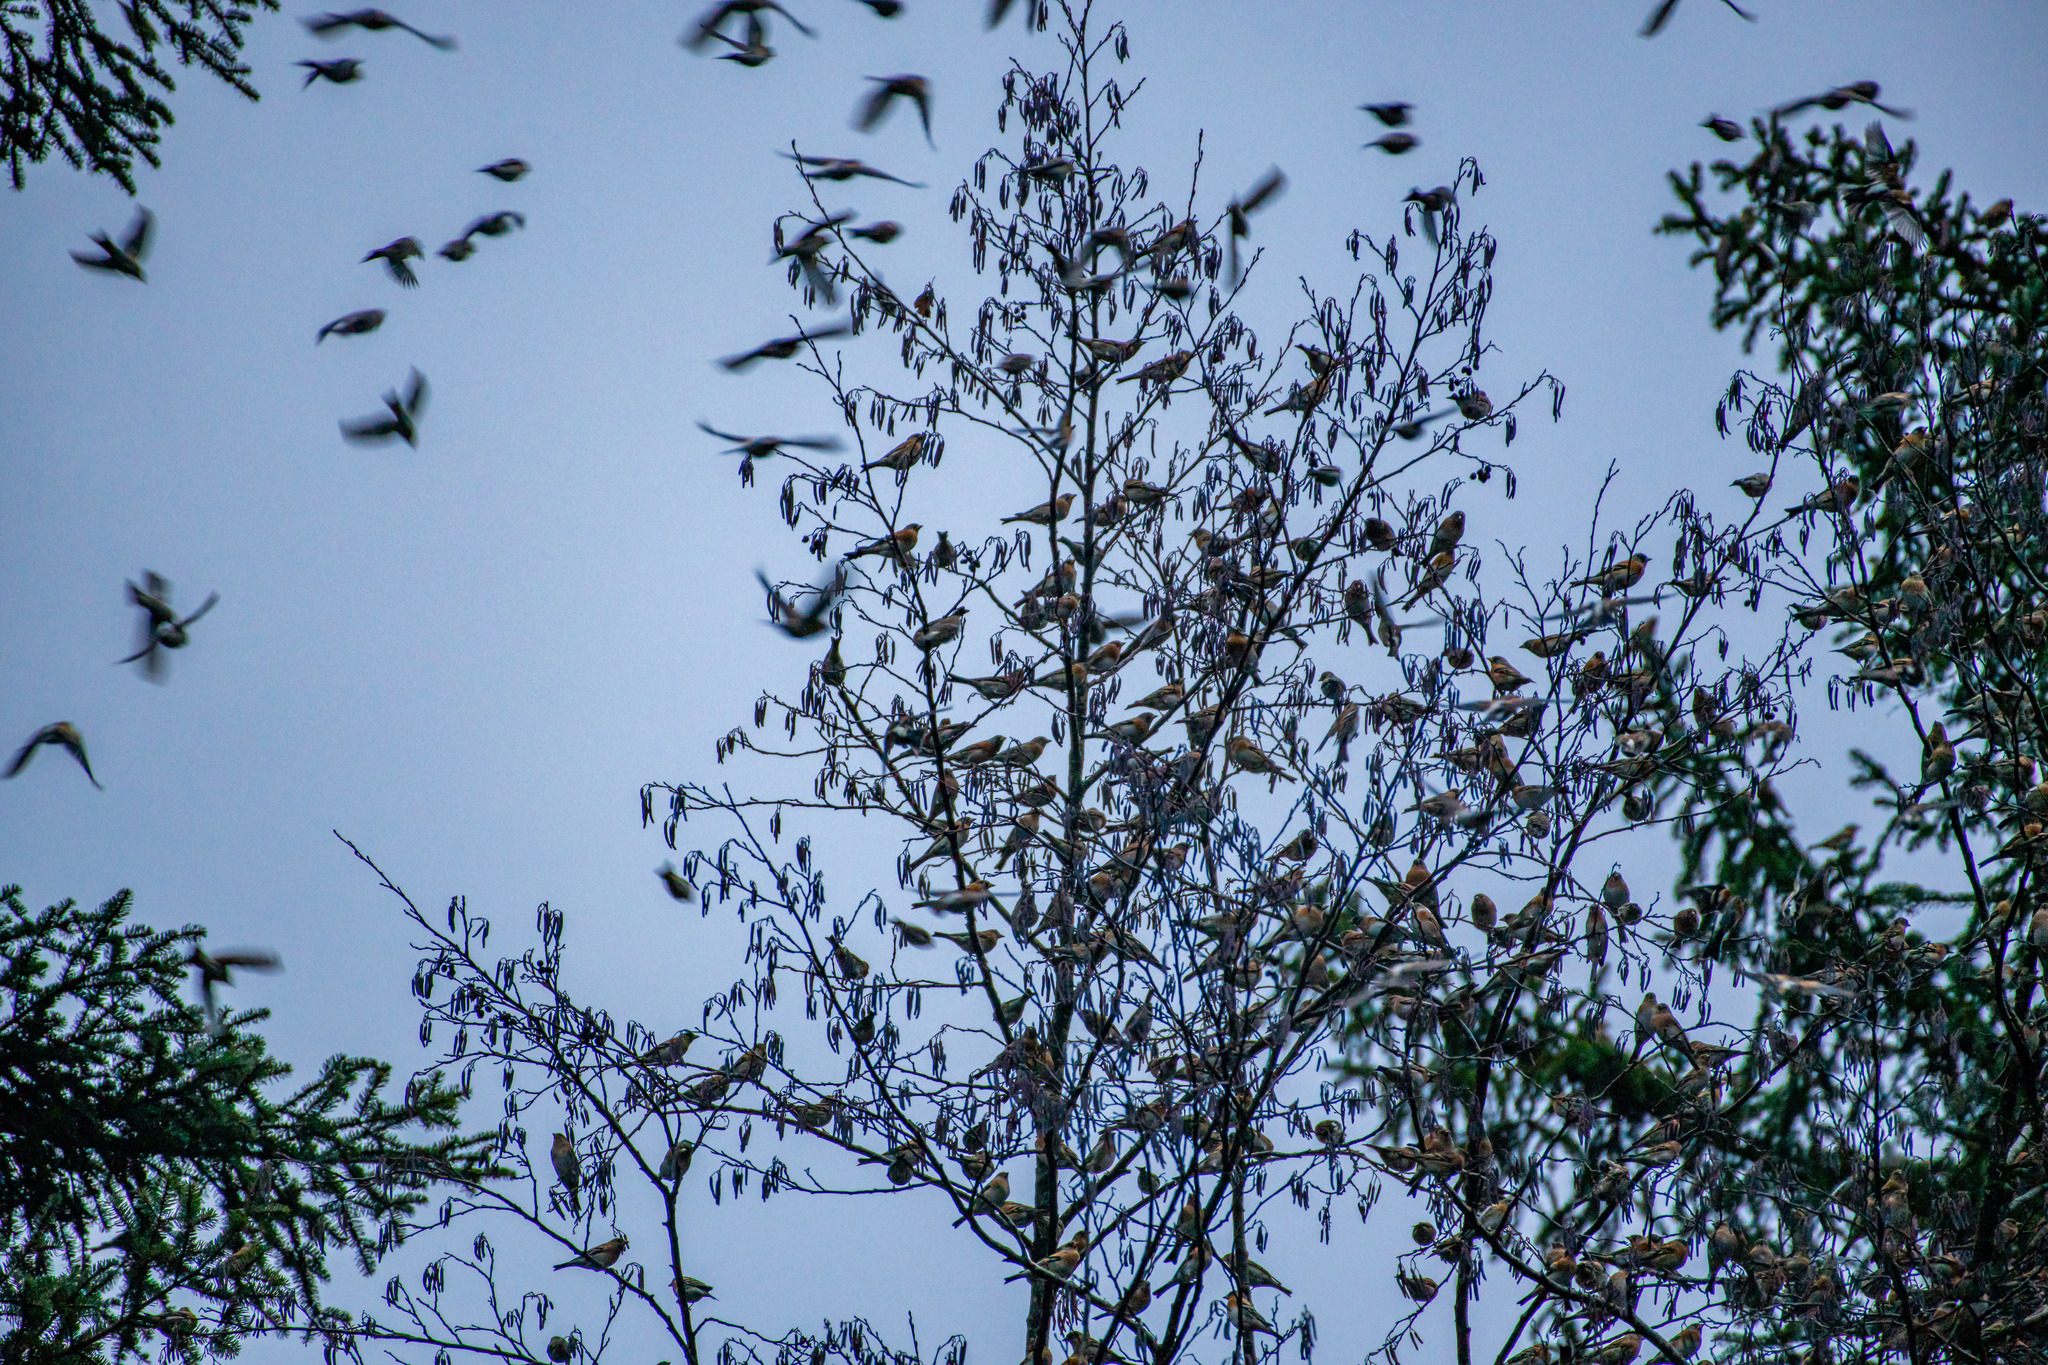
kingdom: Animalia
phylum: Chordata
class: Aves
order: Passeriformes
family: Fringillidae
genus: Fringilla
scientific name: Fringilla montifringilla
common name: Brambling
